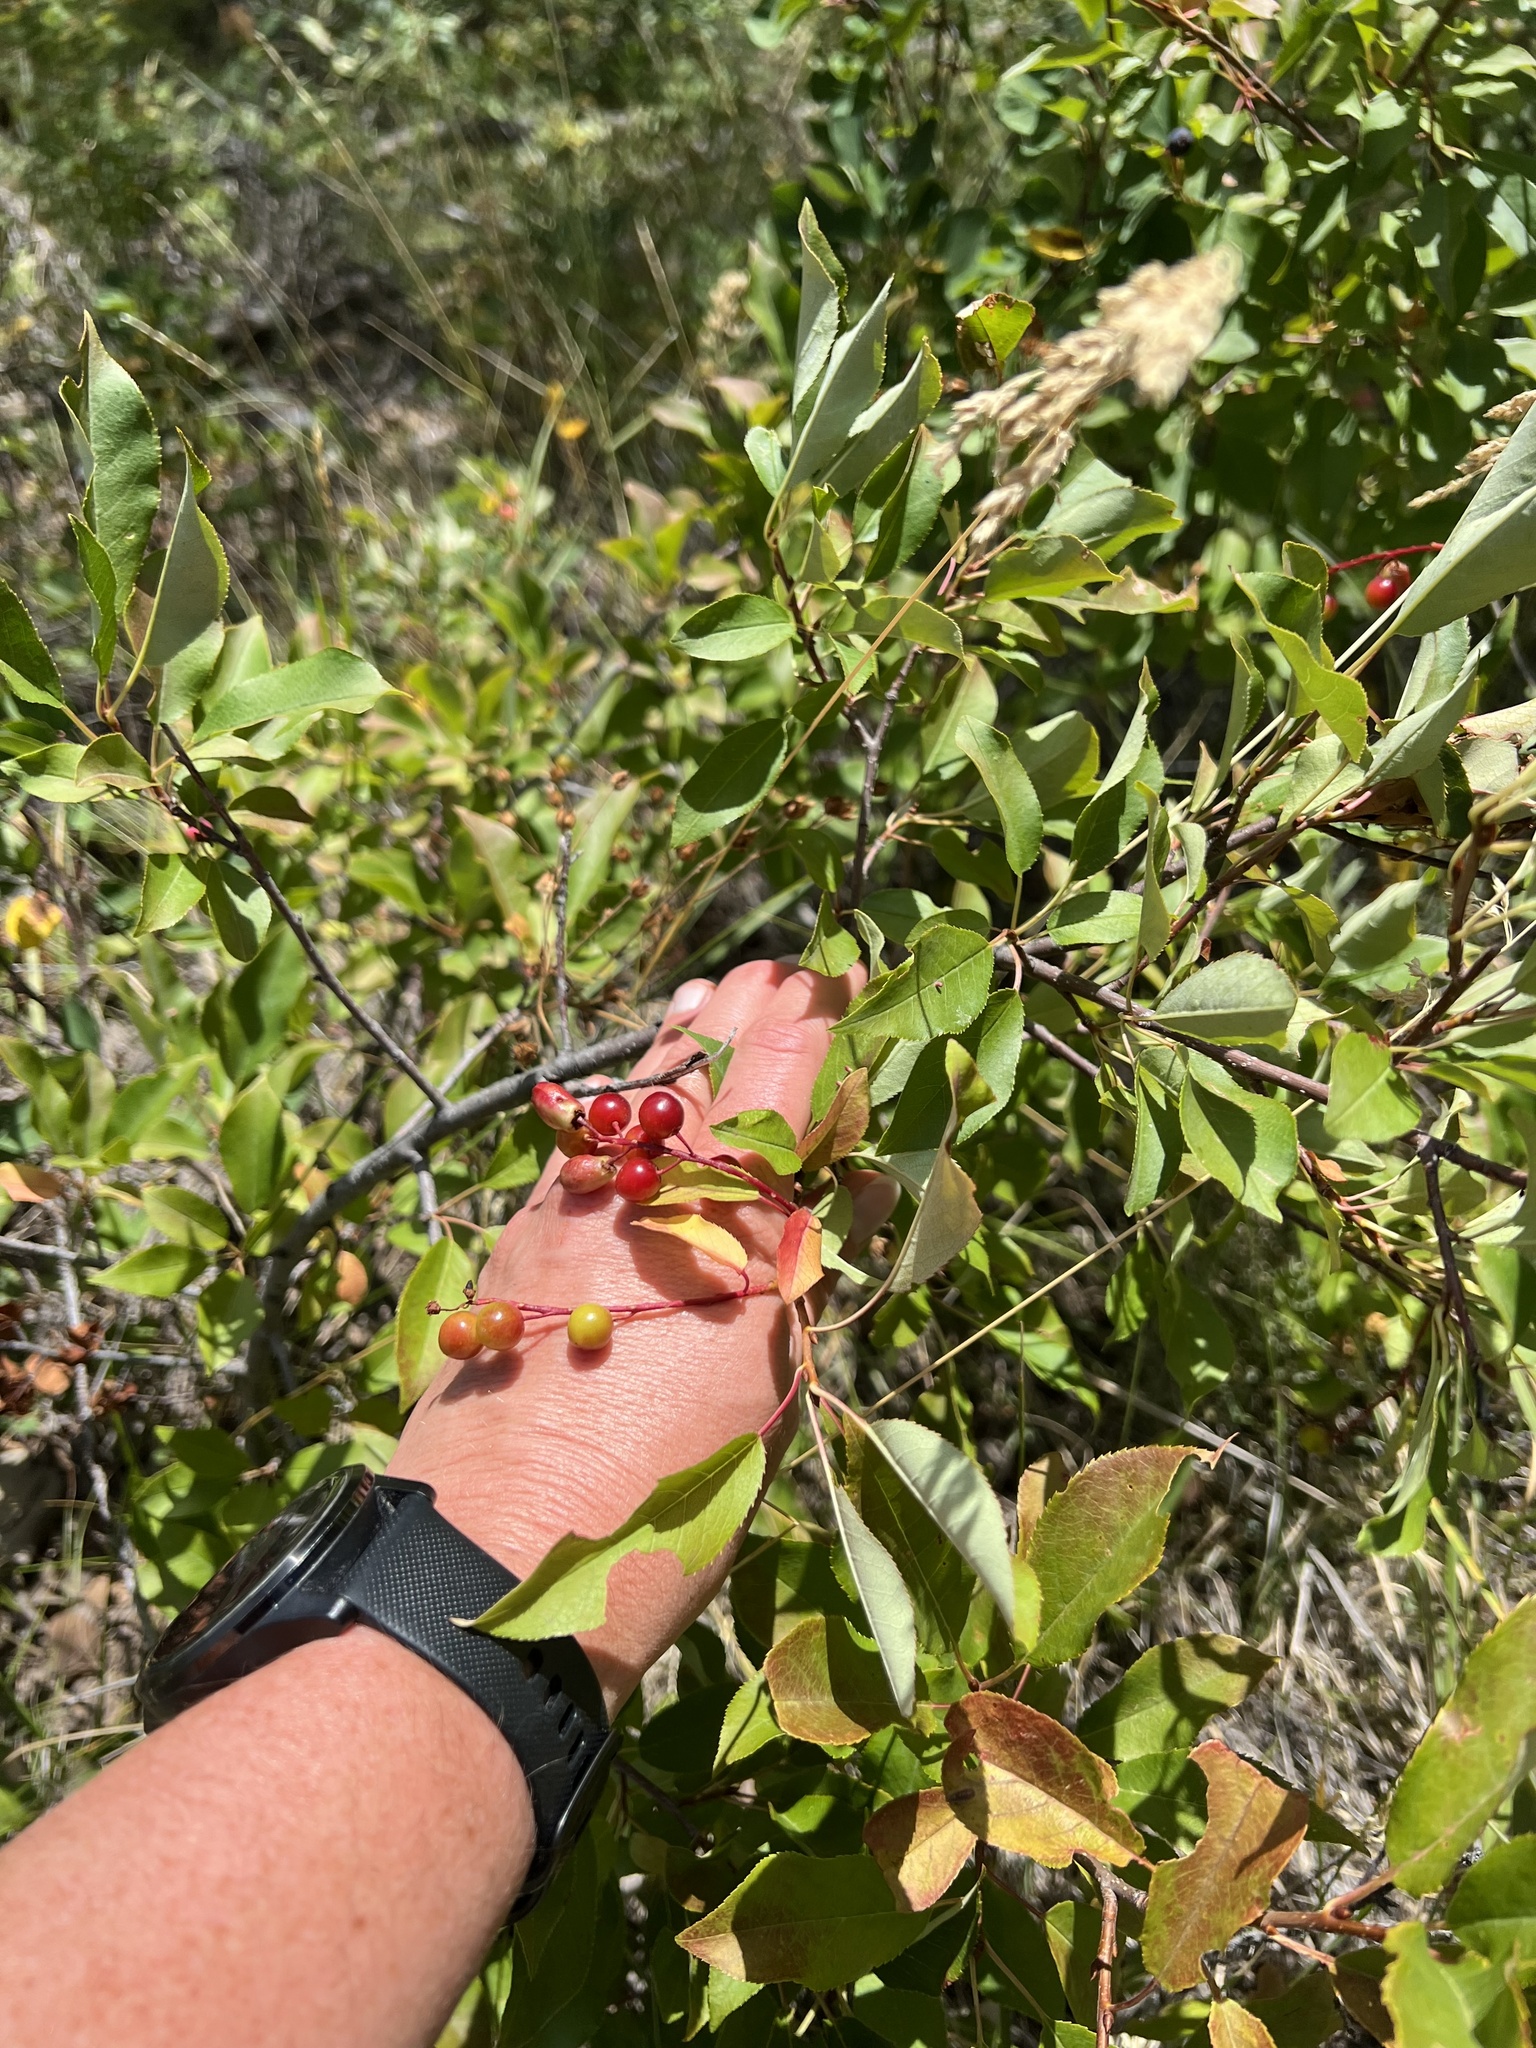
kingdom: Plantae
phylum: Tracheophyta
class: Magnoliopsida
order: Rosales
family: Rosaceae
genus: Prunus
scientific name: Prunus virginiana
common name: Chokecherry
